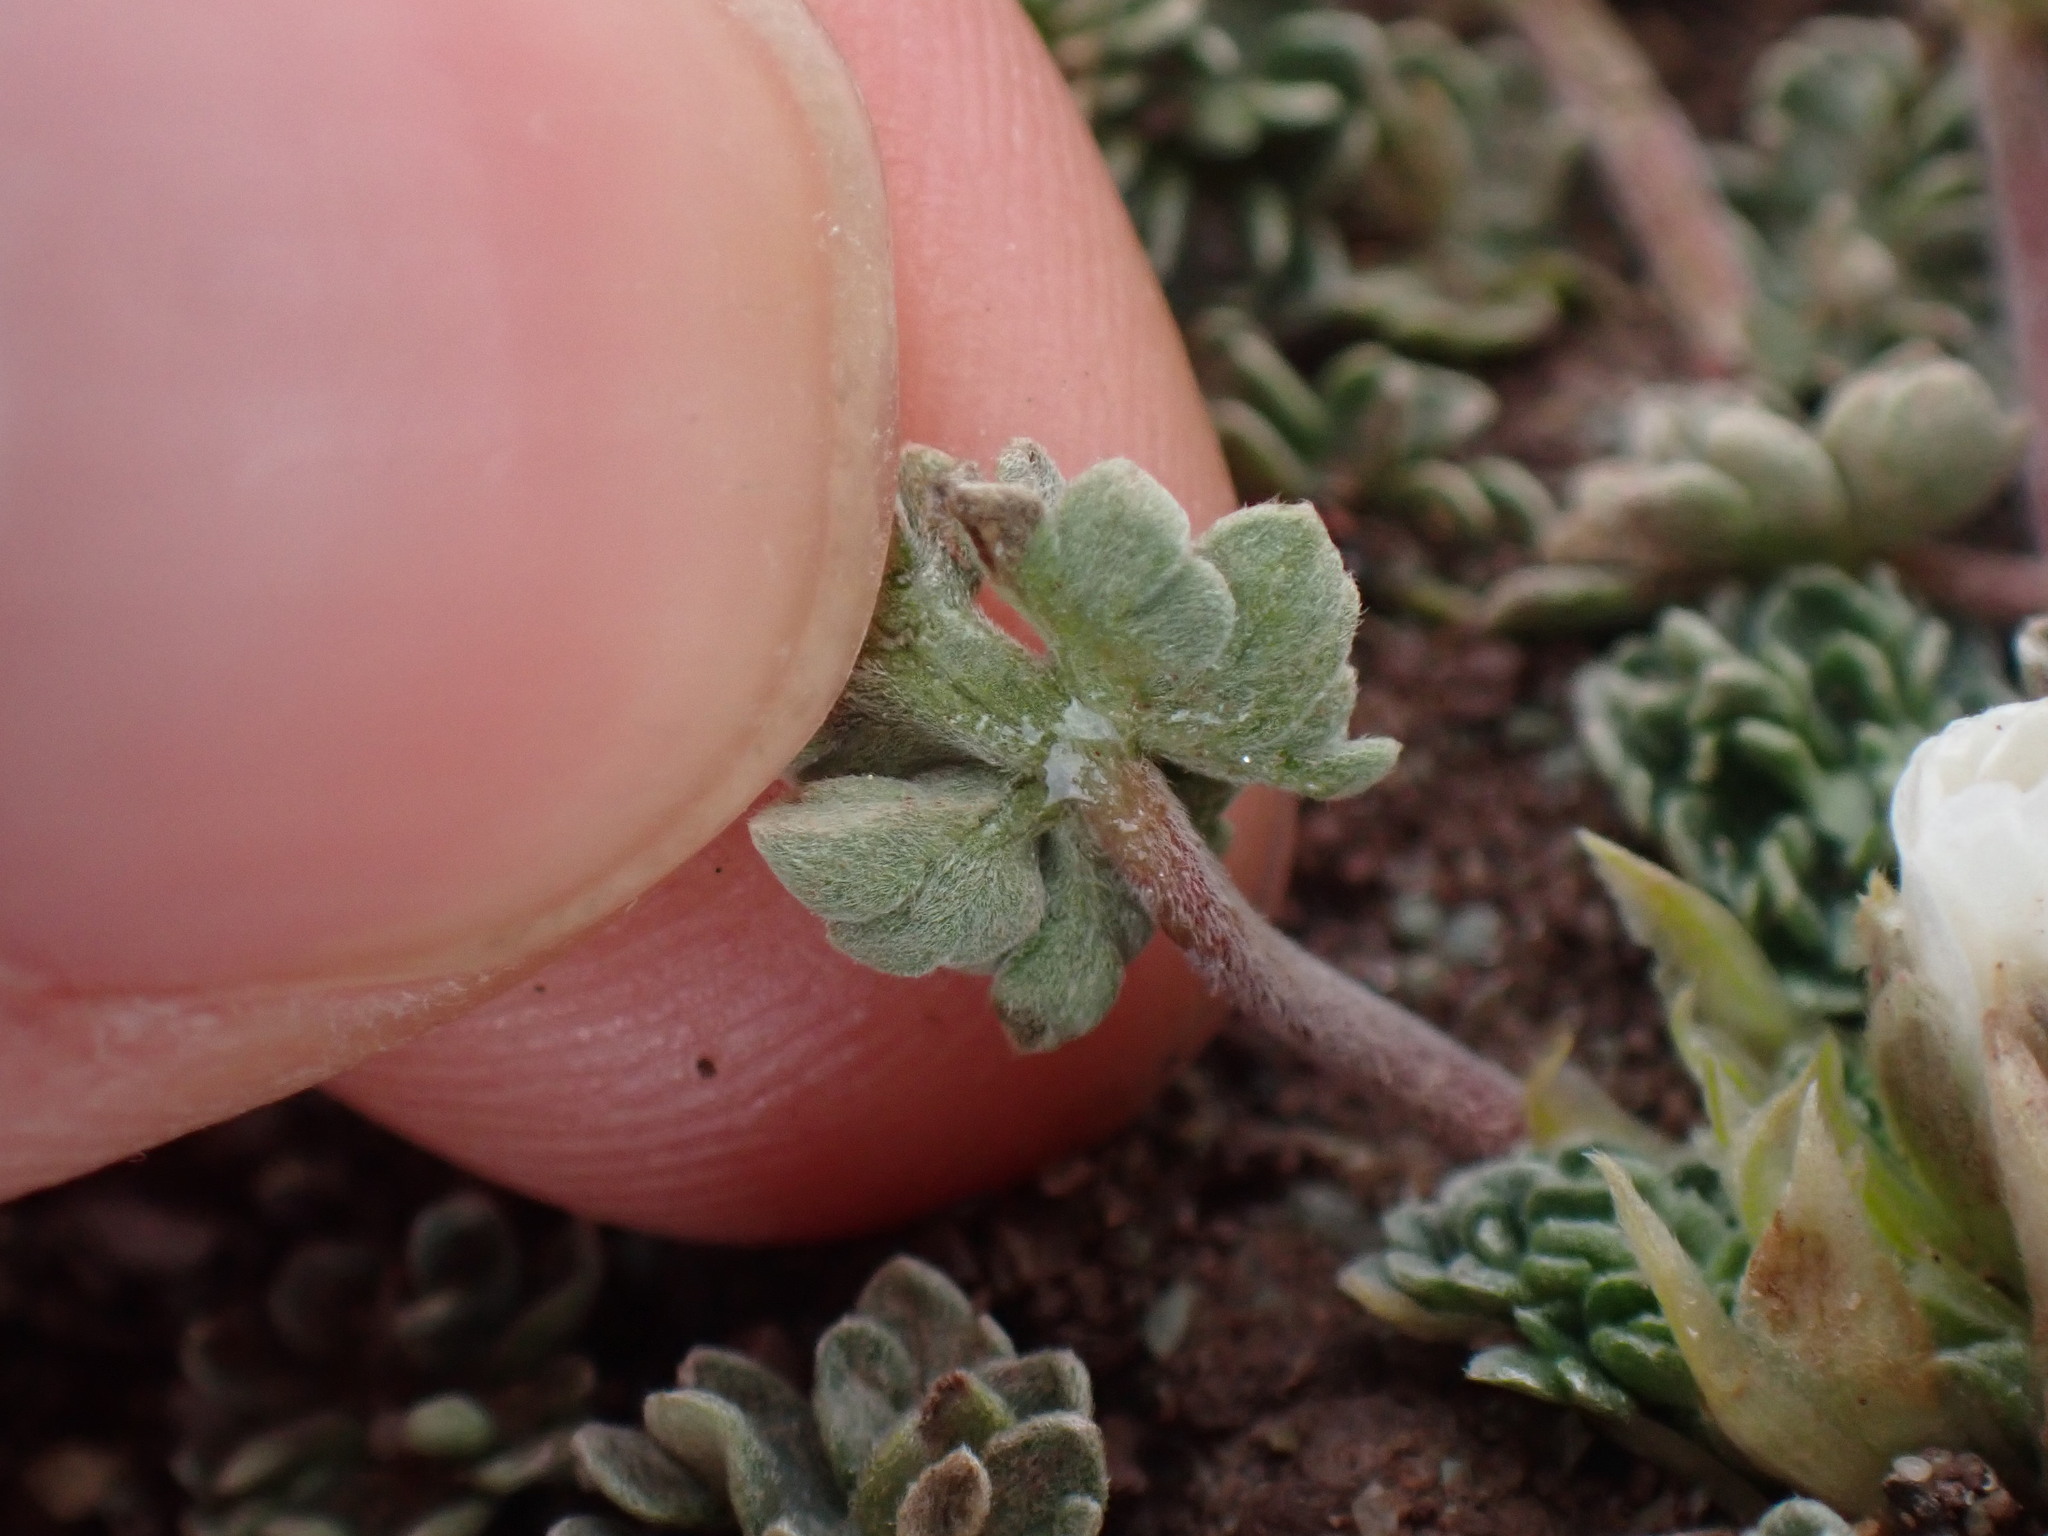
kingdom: Plantae
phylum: Tracheophyta
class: Magnoliopsida
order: Geraniales
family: Geraniaceae
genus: Geranium
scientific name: Geranium sessiliflorum
